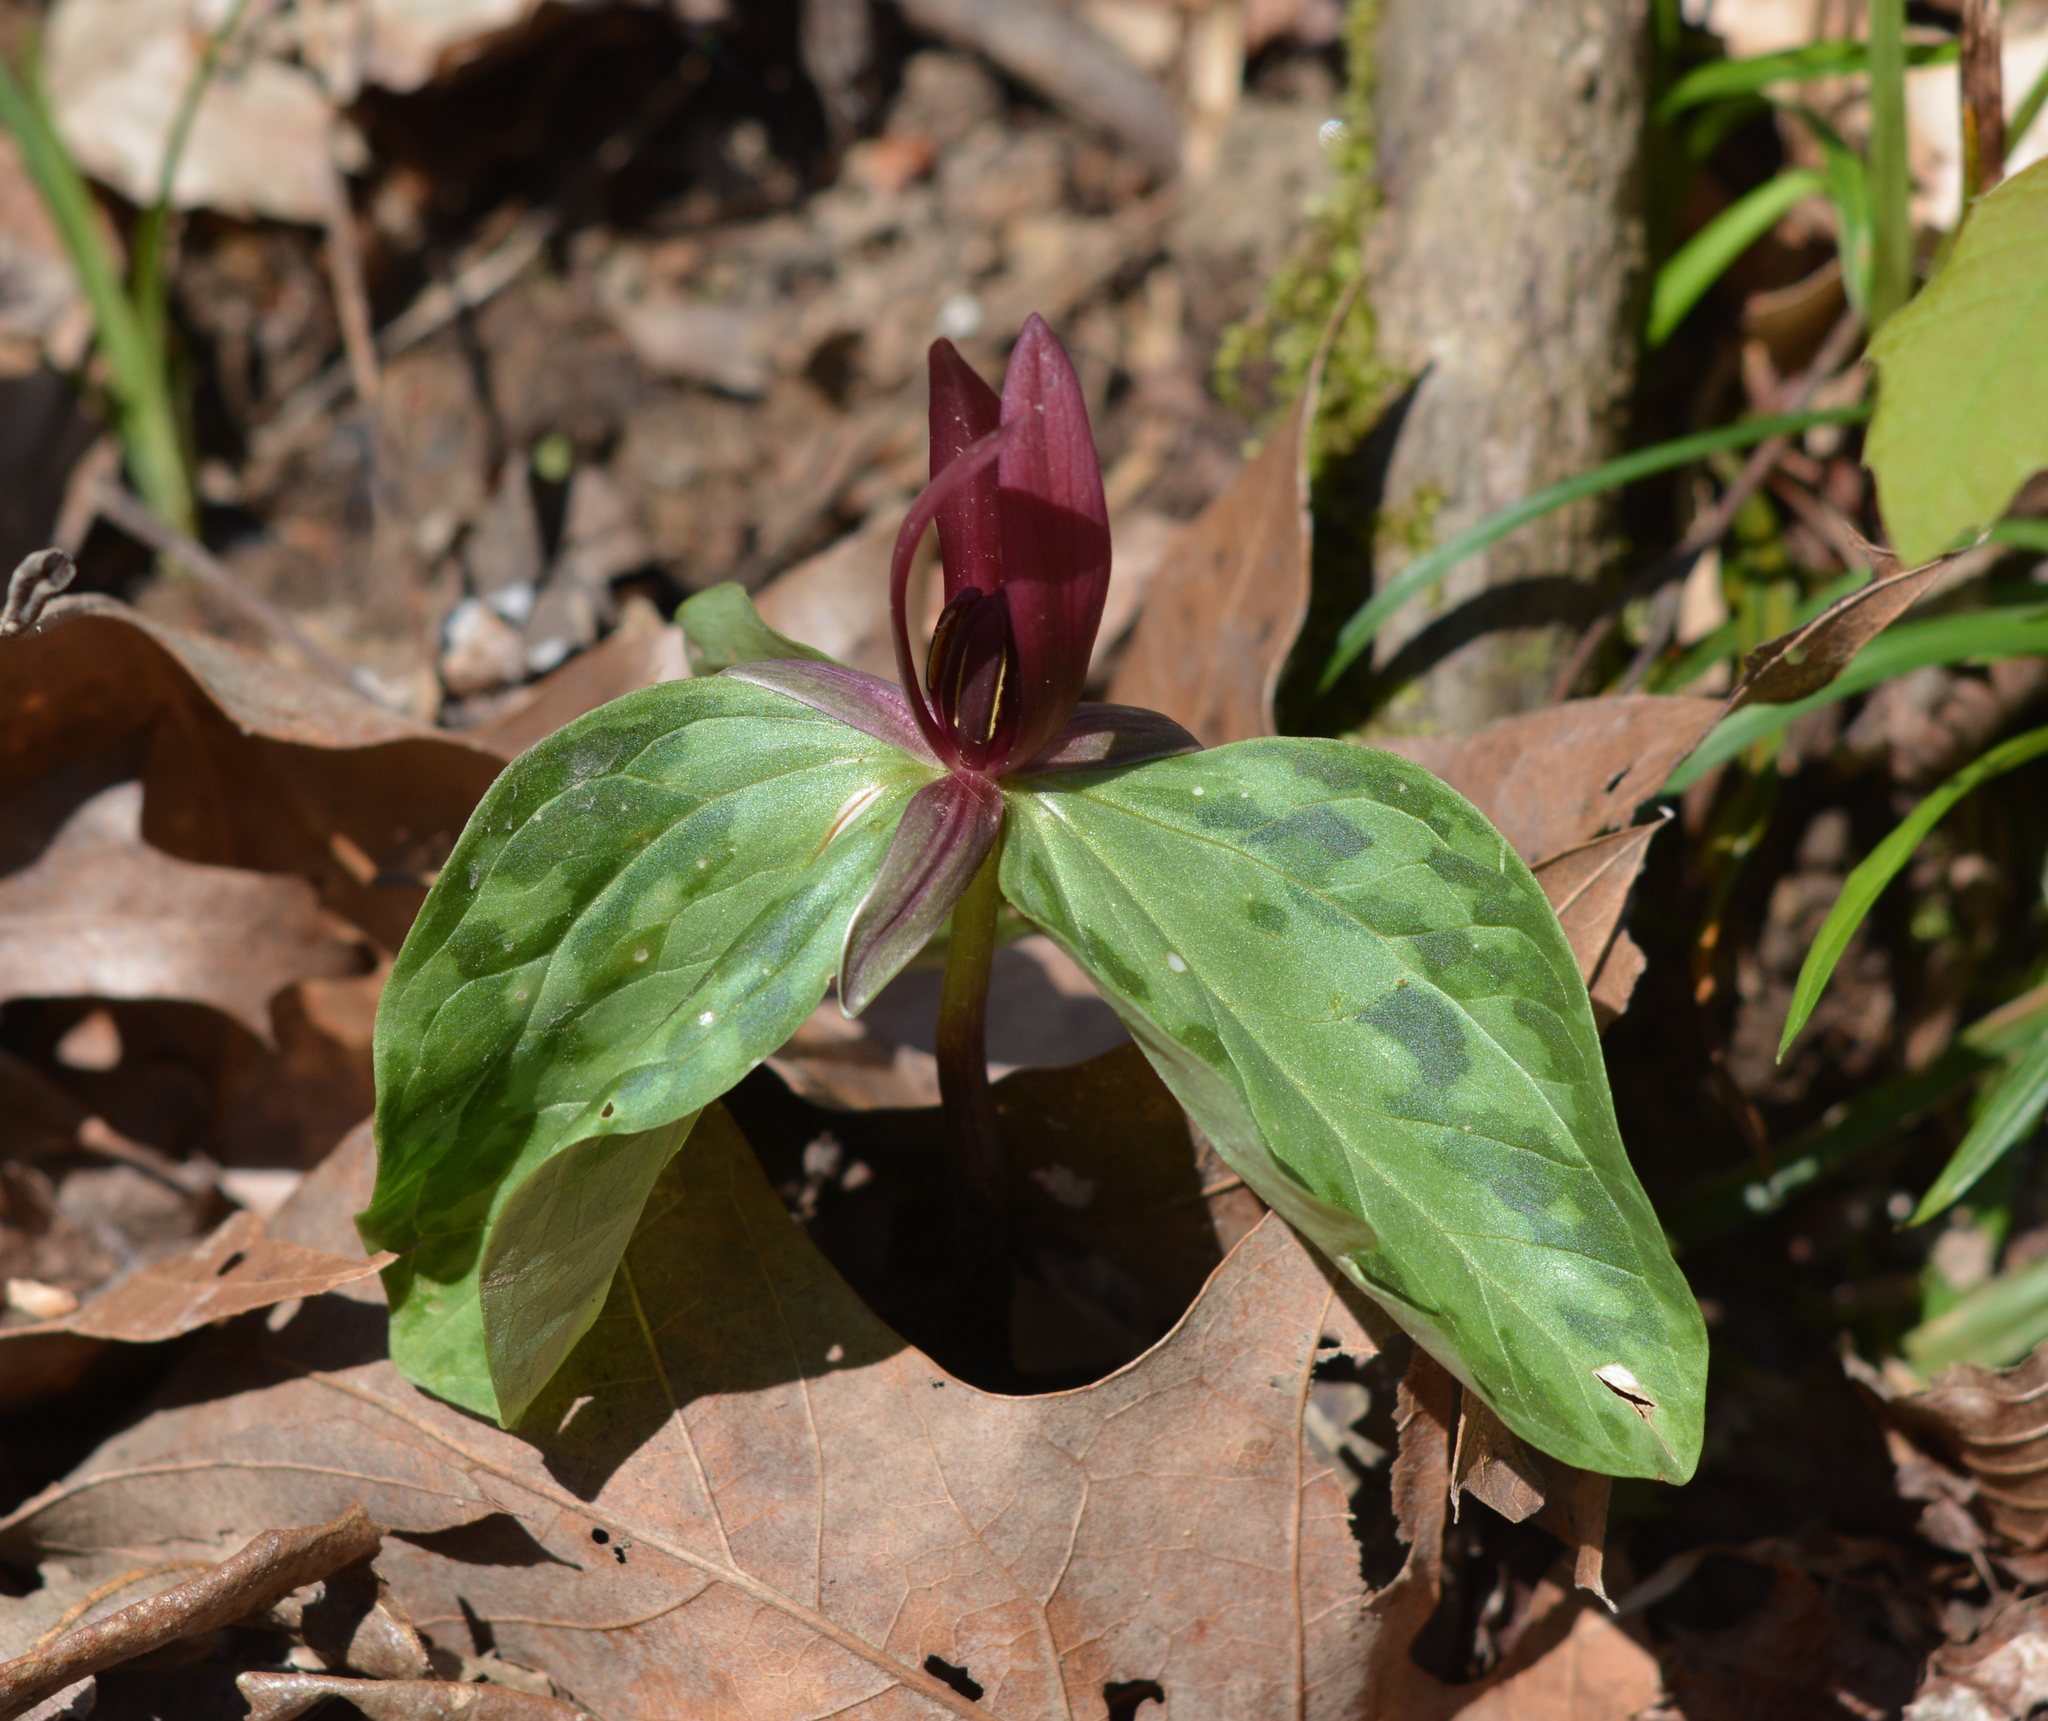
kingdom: Plantae
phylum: Tracheophyta
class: Liliopsida
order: Liliales
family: Melanthiaceae
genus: Trillium
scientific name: Trillium foetidissimum
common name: Mississippi river trillium
